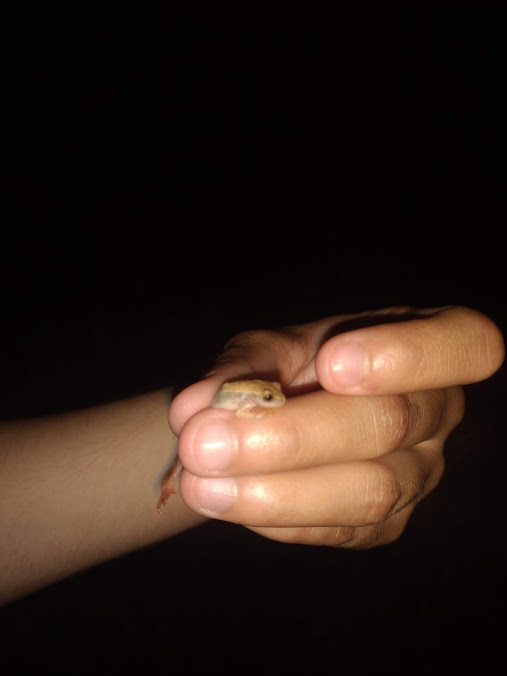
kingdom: Animalia
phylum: Chordata
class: Amphibia
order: Anura
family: Hylidae
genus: Dendropsophus
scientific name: Dendropsophus nanus
